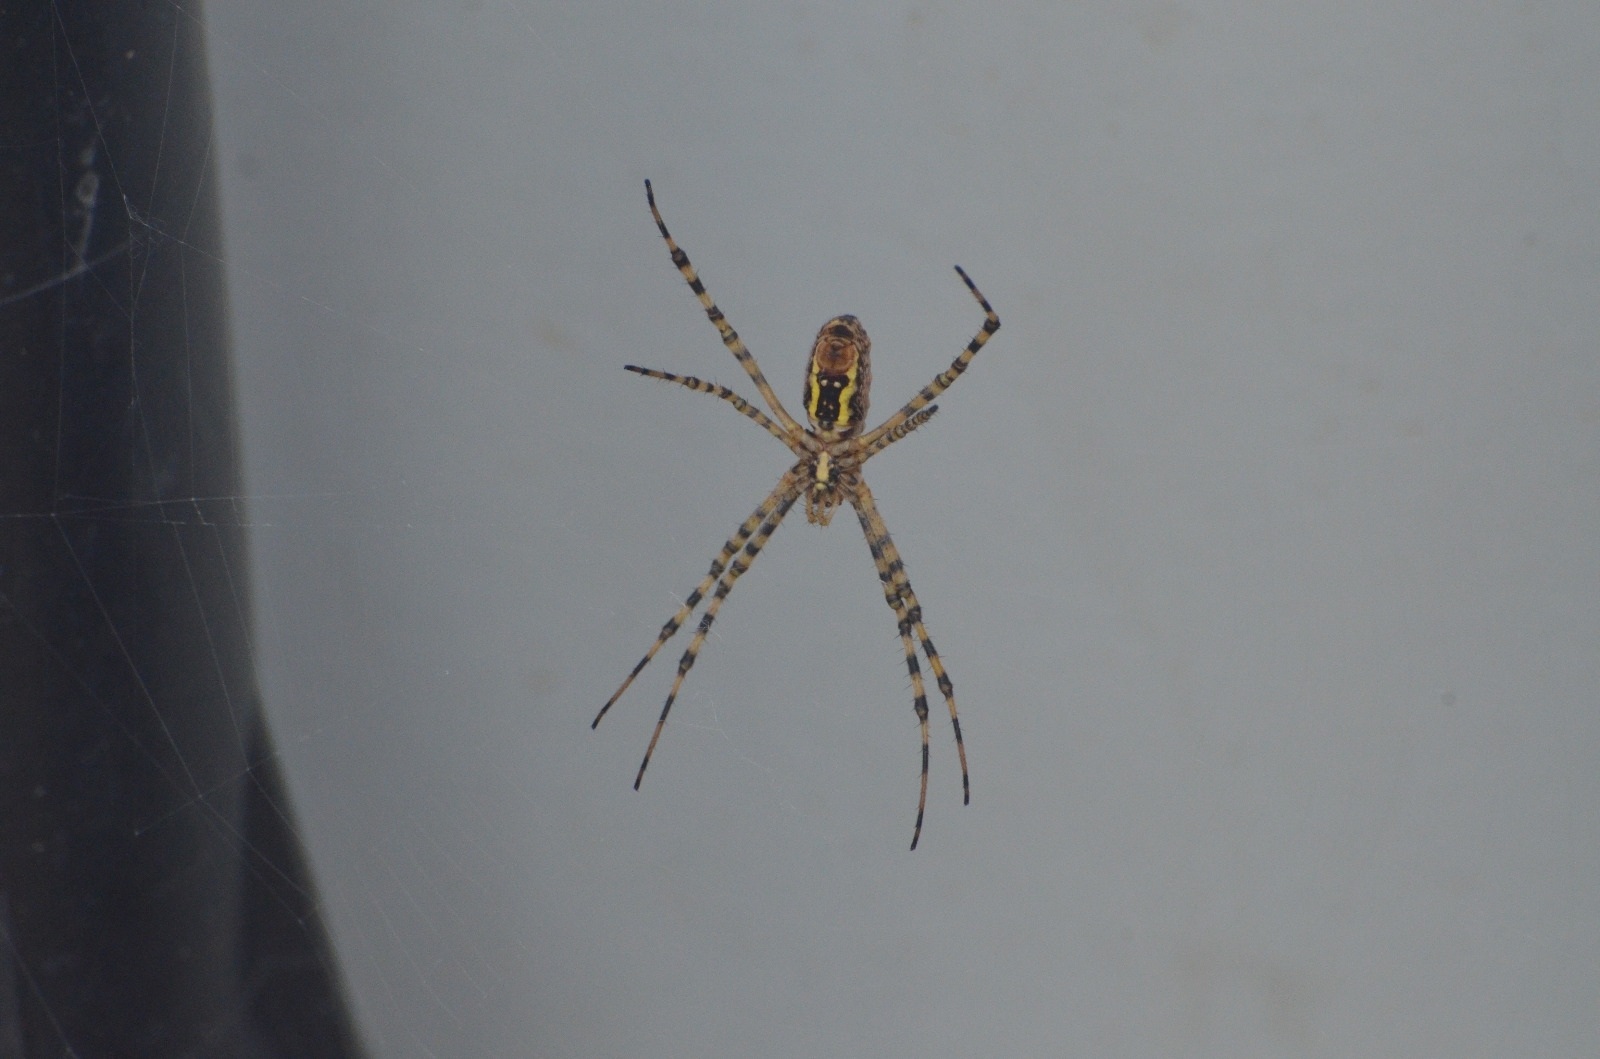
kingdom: Animalia
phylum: Arthropoda
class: Arachnida
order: Araneae
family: Araneidae
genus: Argiope
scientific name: Argiope trifasciata
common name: Banded garden spider
